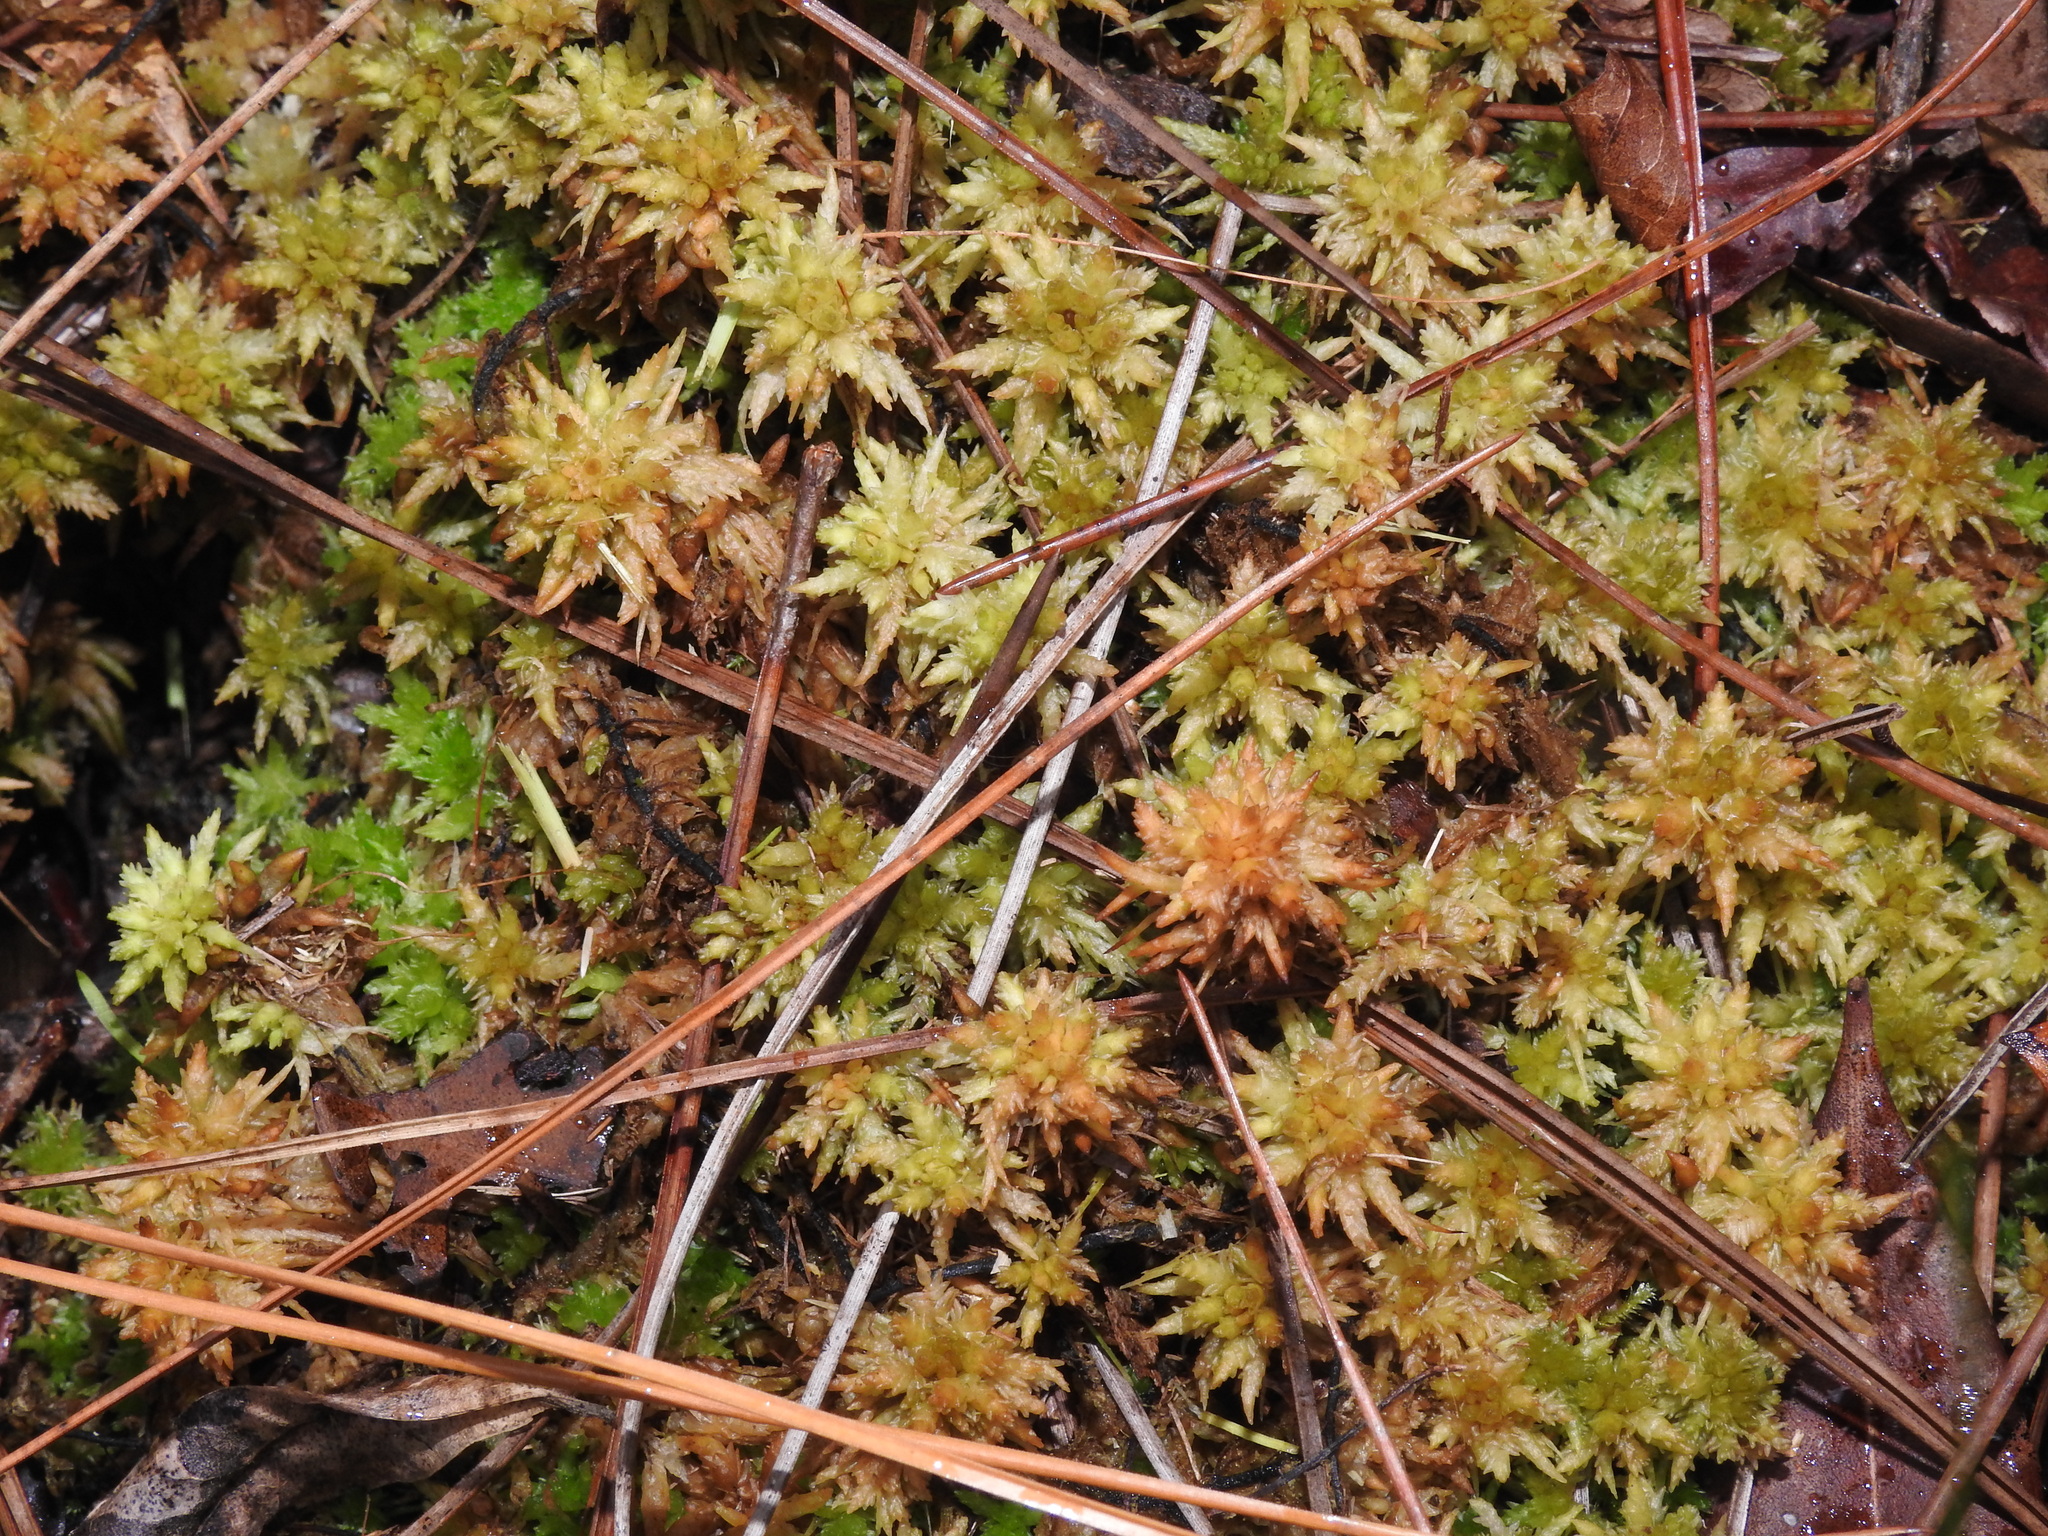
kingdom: Plantae
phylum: Bryophyta
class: Sphagnopsida
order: Sphagnales
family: Sphagnaceae
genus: Sphagnum
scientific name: Sphagnum perichaetiale
